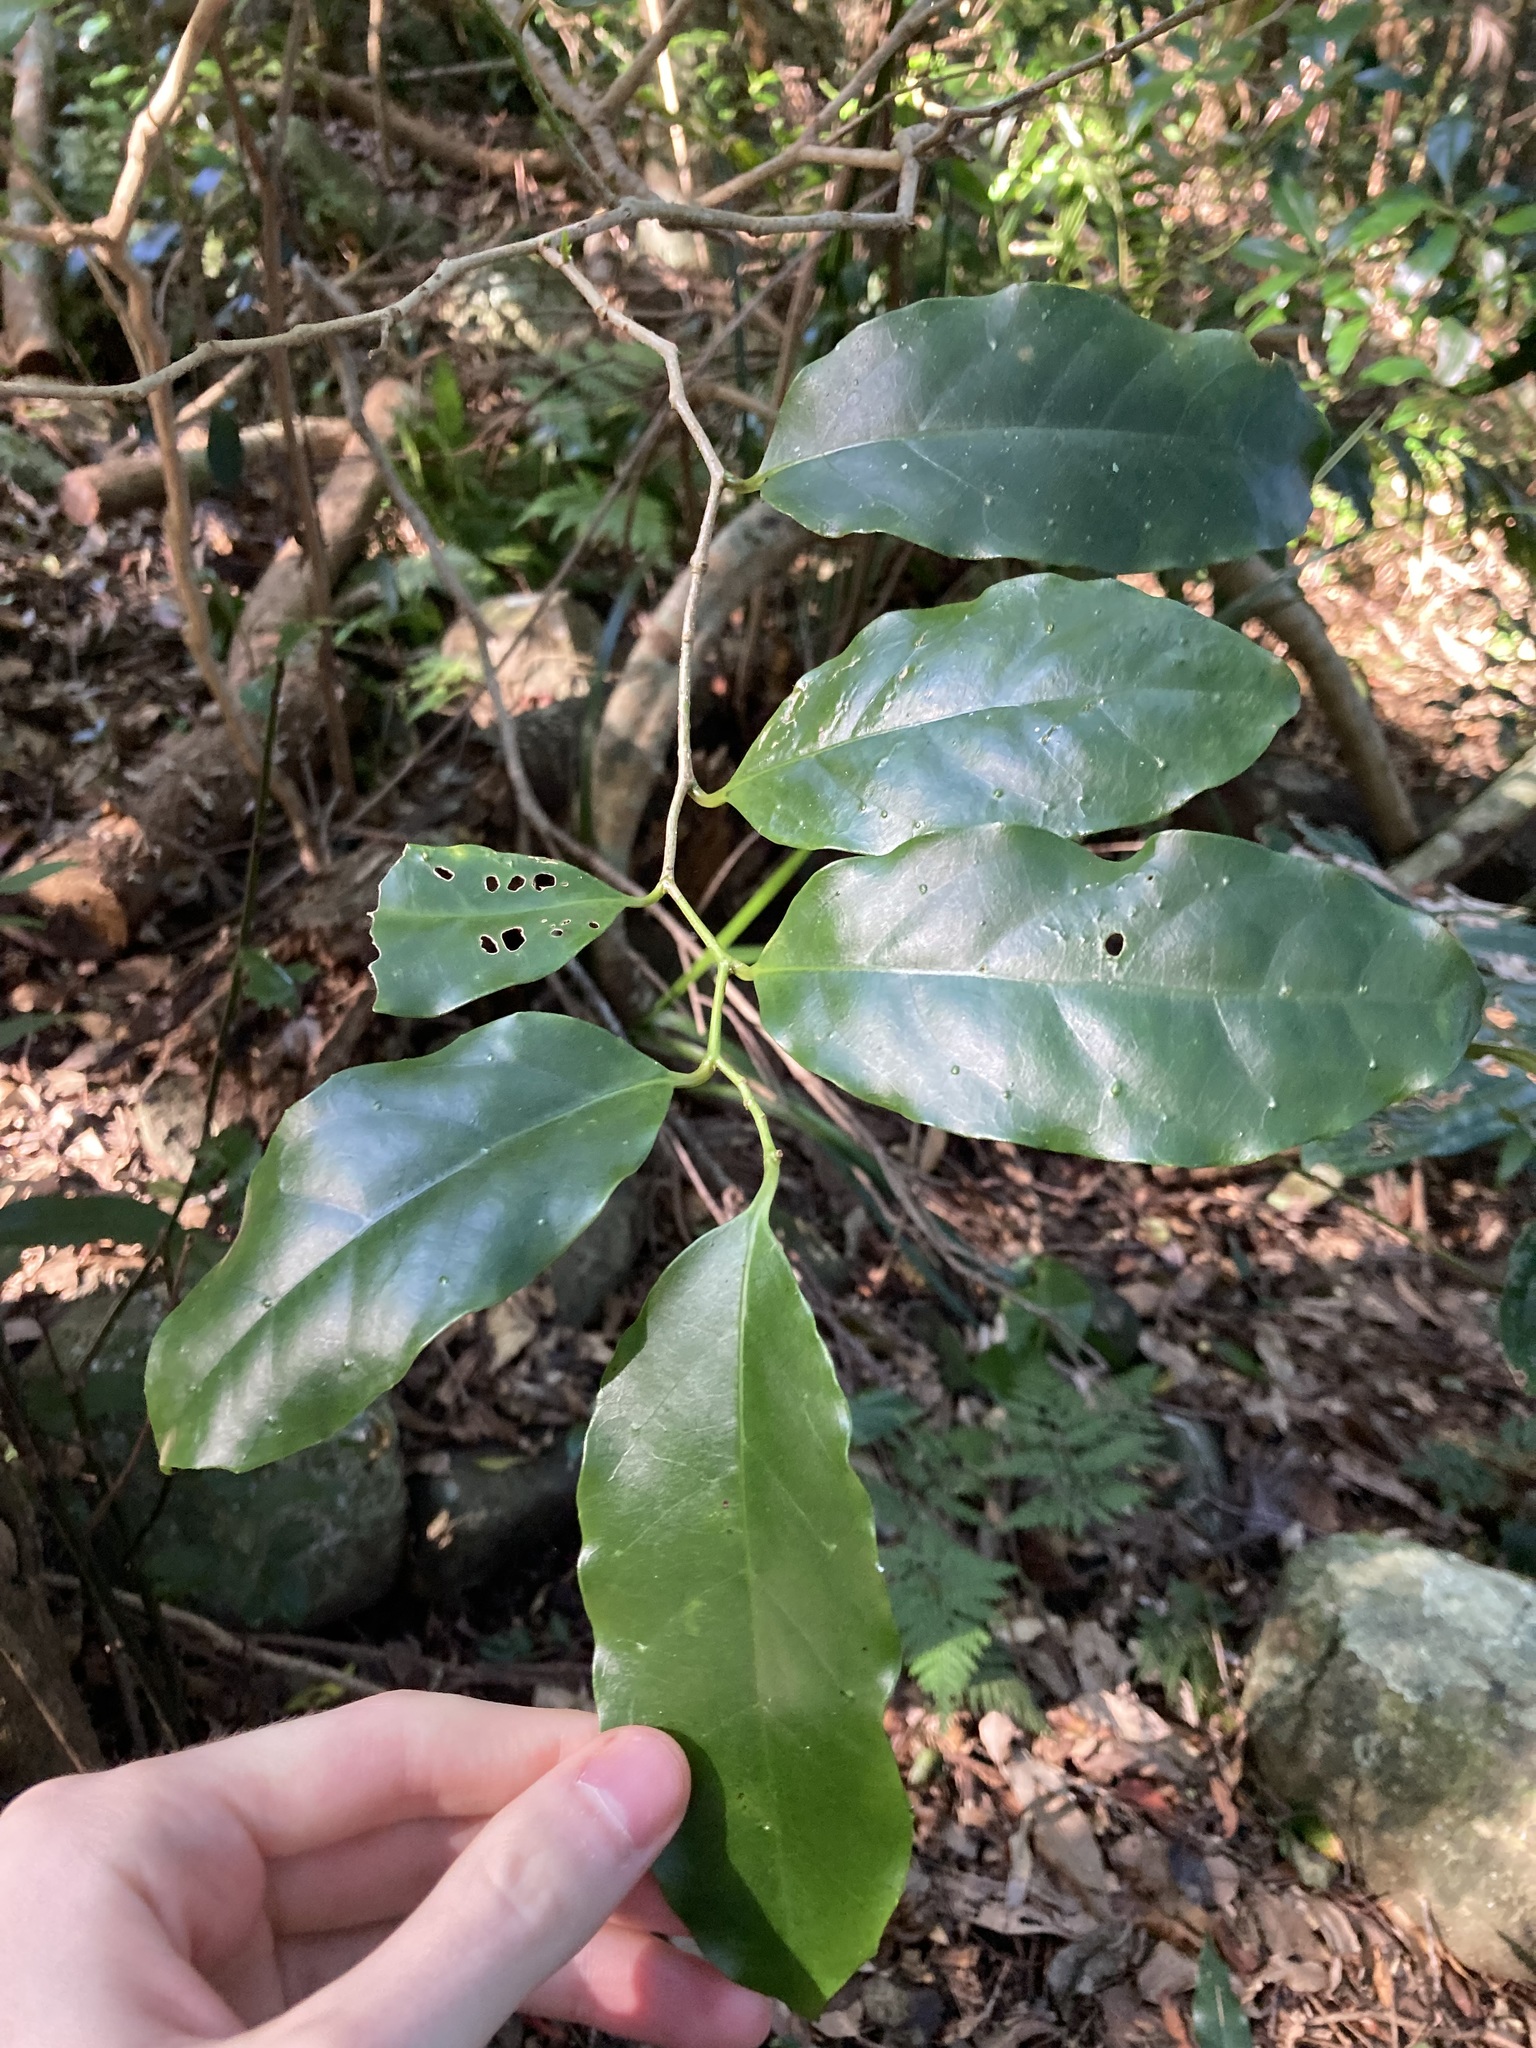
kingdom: Plantae
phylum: Tracheophyta
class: Magnoliopsida
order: Apiales
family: Pennantiaceae
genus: Pennantia
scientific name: Pennantia cunninghamii
